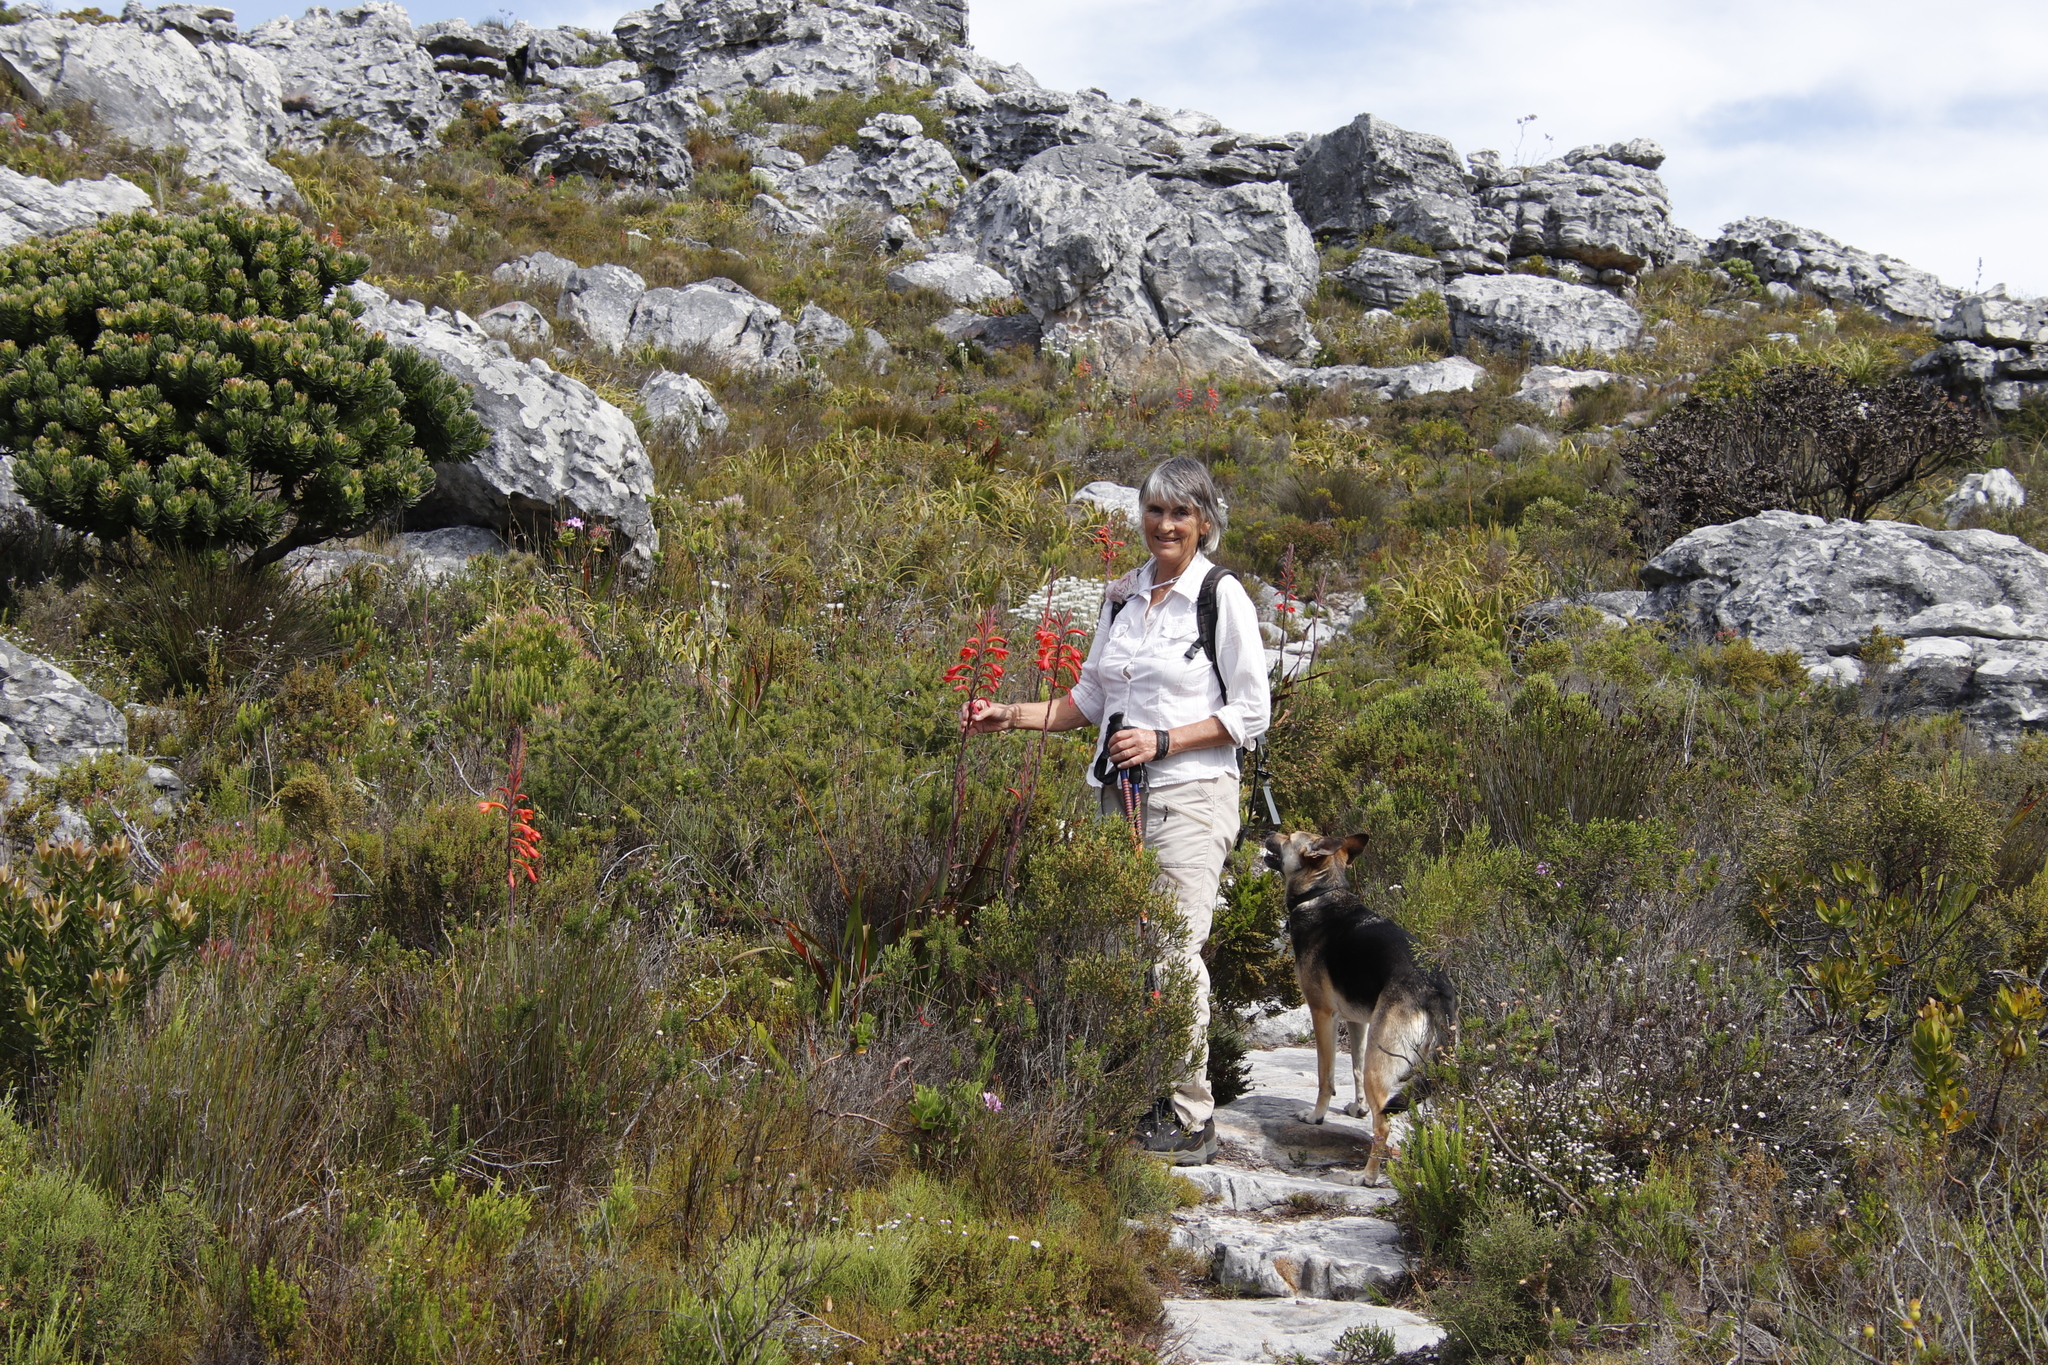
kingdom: Plantae
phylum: Tracheophyta
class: Liliopsida
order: Asparagales
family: Iridaceae
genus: Watsonia
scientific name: Watsonia tabularis
